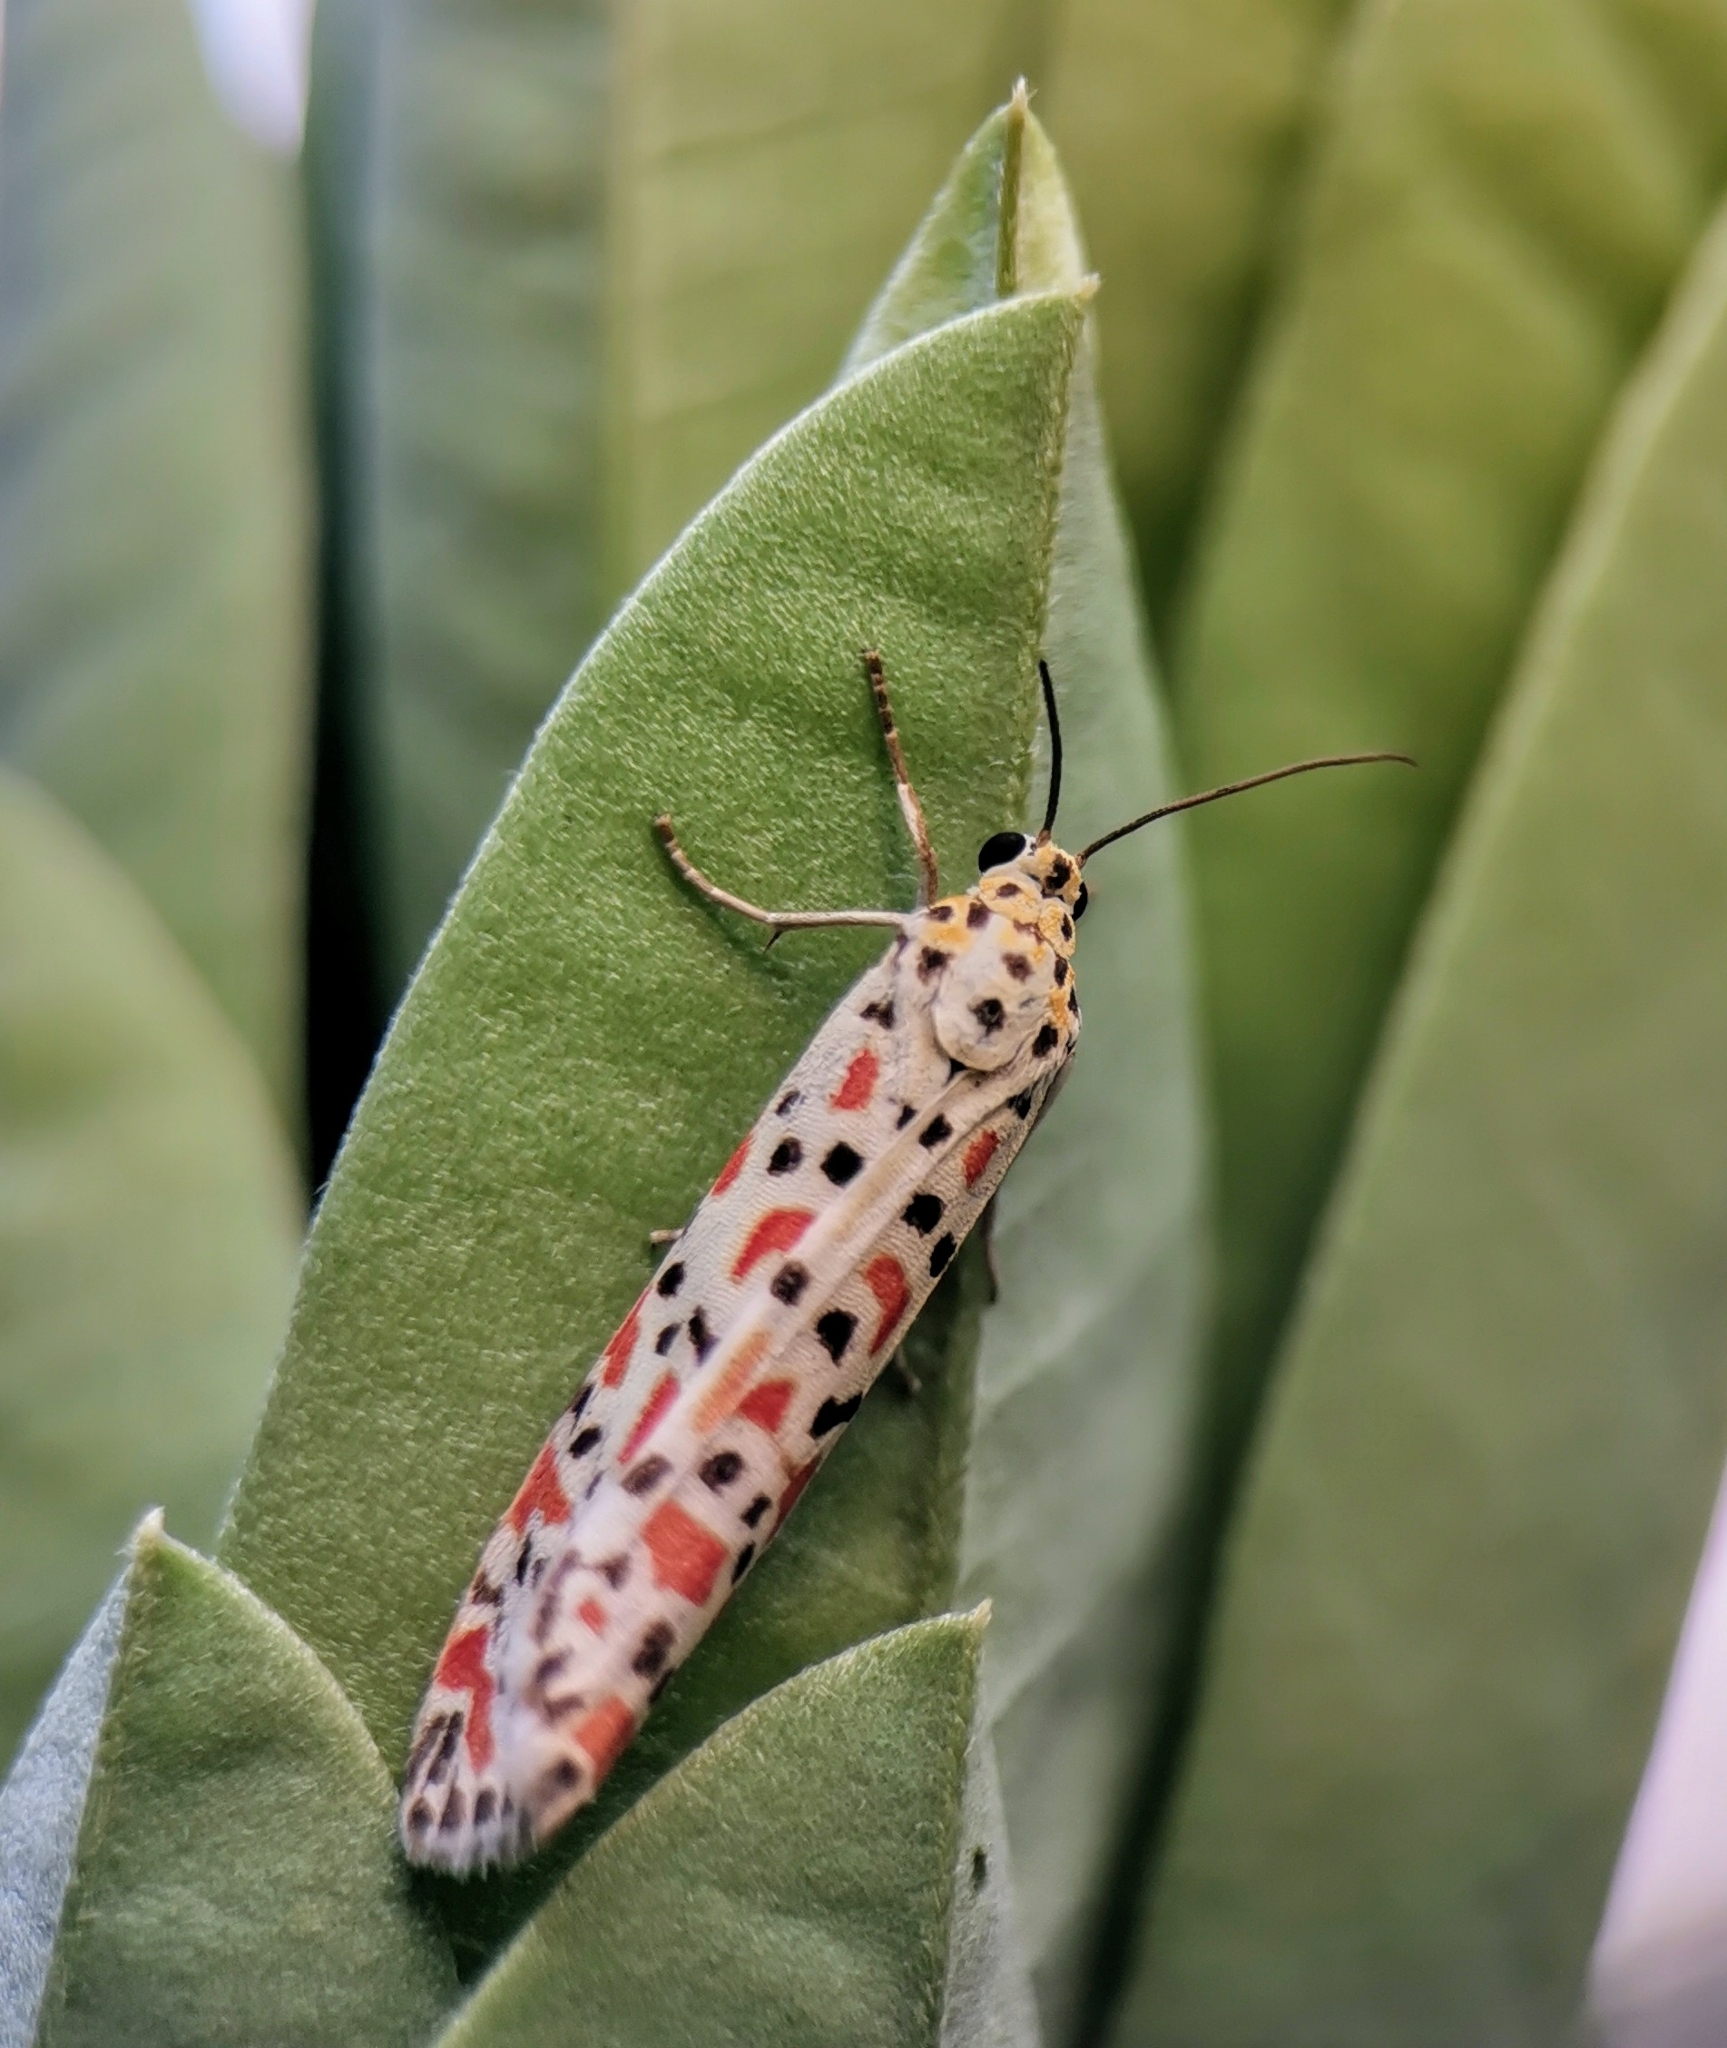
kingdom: Animalia
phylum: Arthropoda
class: Insecta
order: Lepidoptera
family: Erebidae
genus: Utetheisa
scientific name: Utetheisa lotrix
